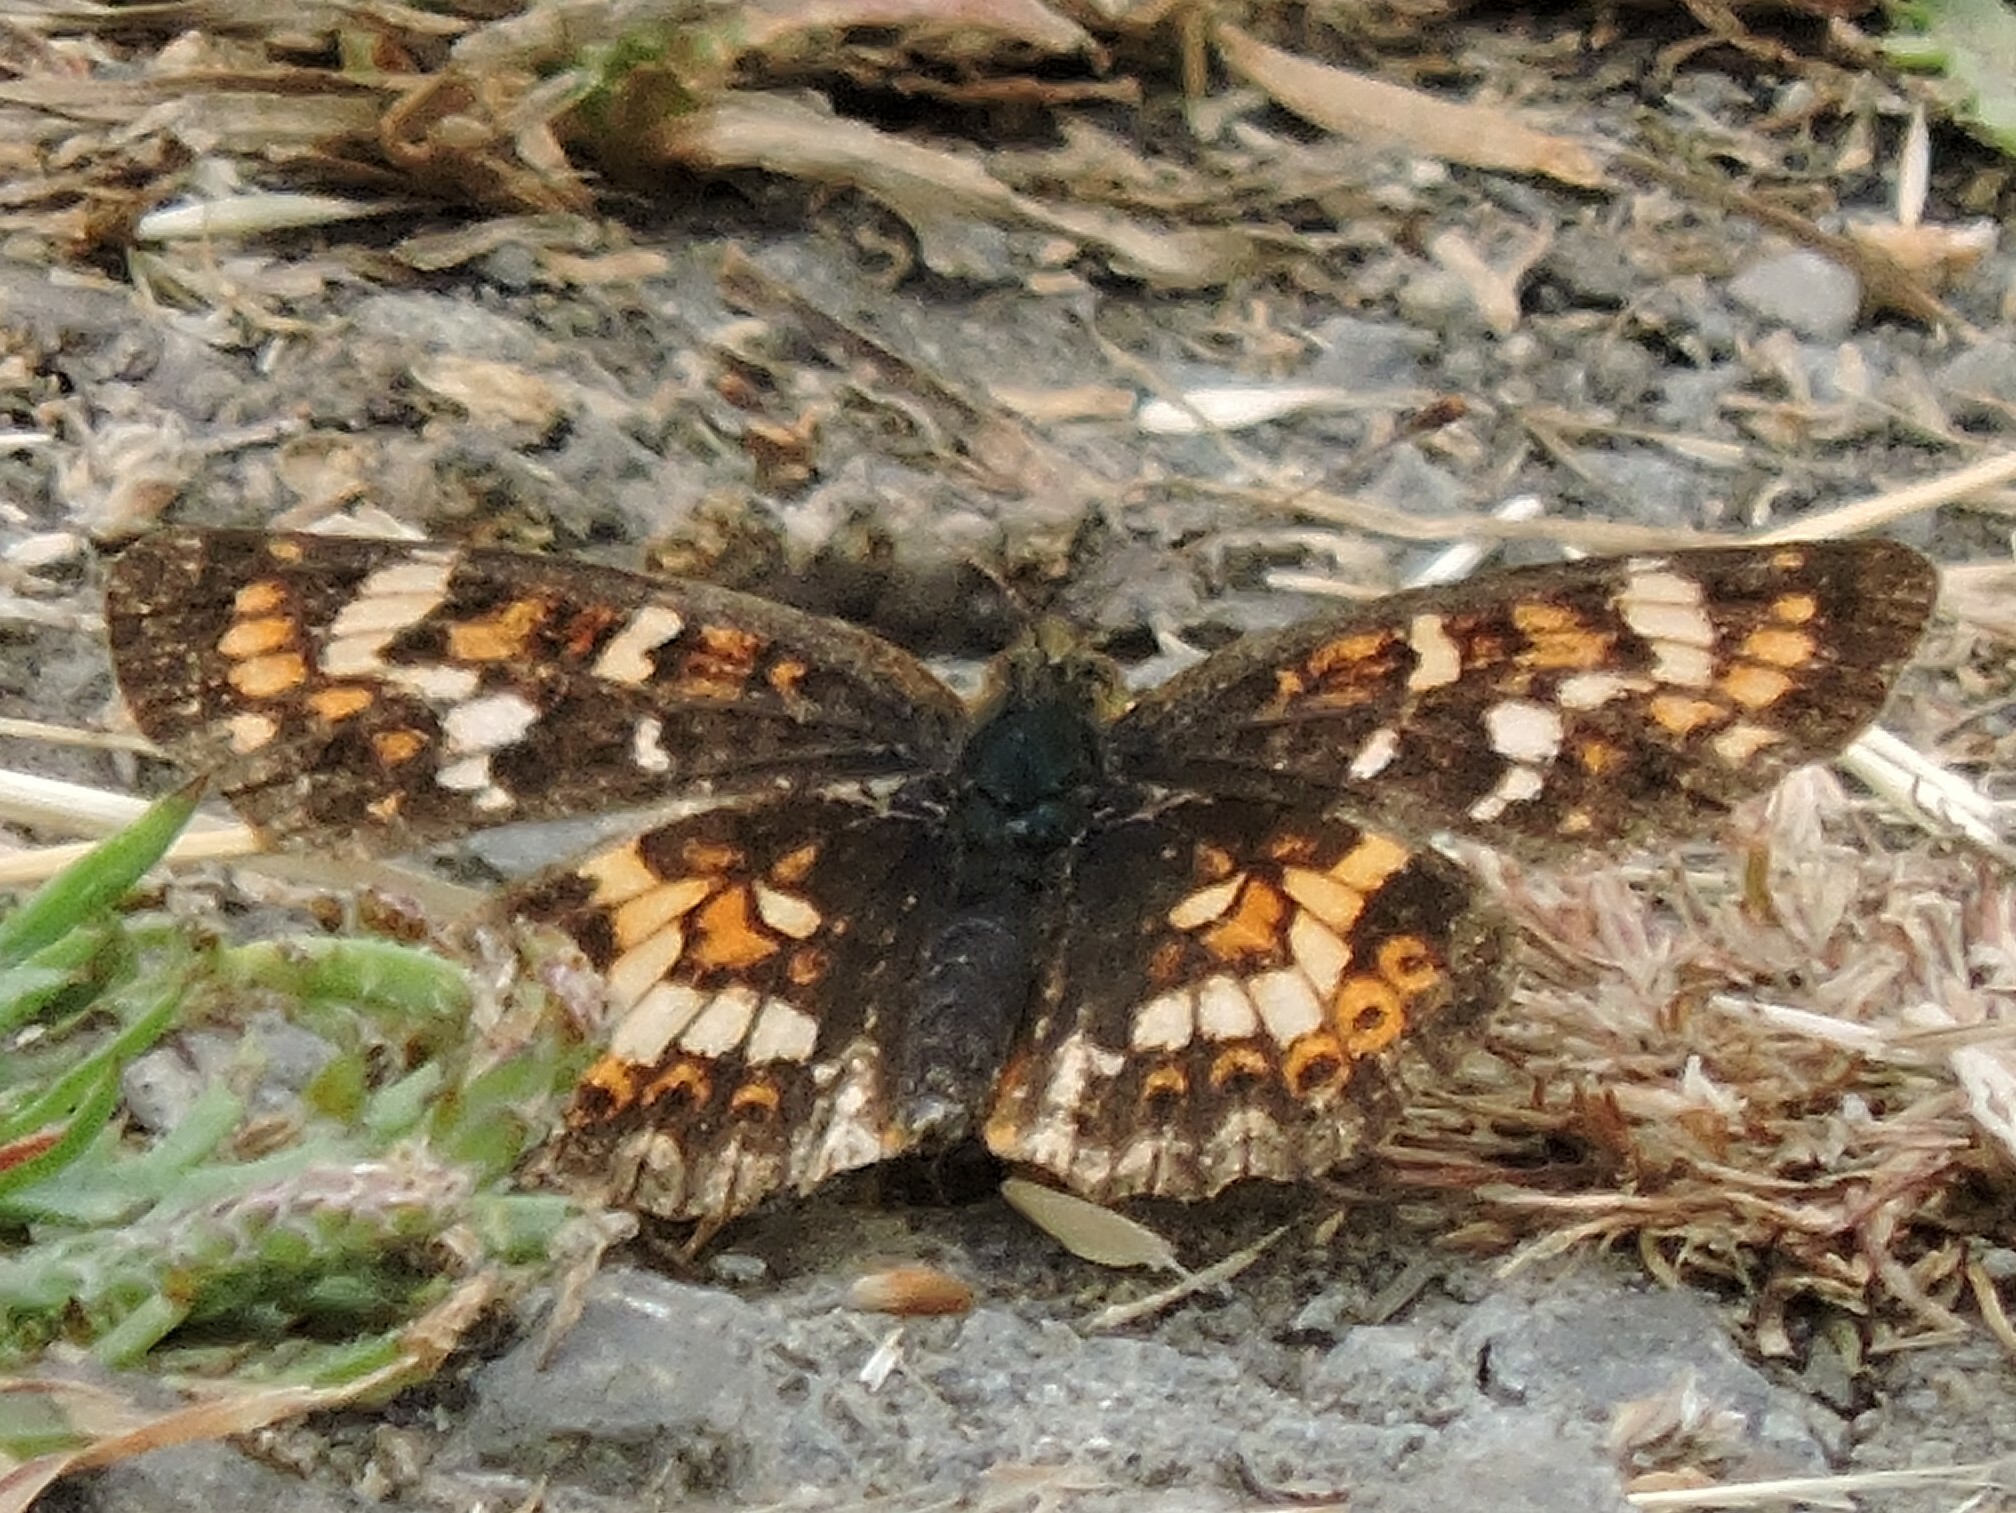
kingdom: Animalia
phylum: Arthropoda
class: Insecta
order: Lepidoptera
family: Nymphalidae
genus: Phyciodes
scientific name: Phyciodes tharos
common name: Pearl crescent
